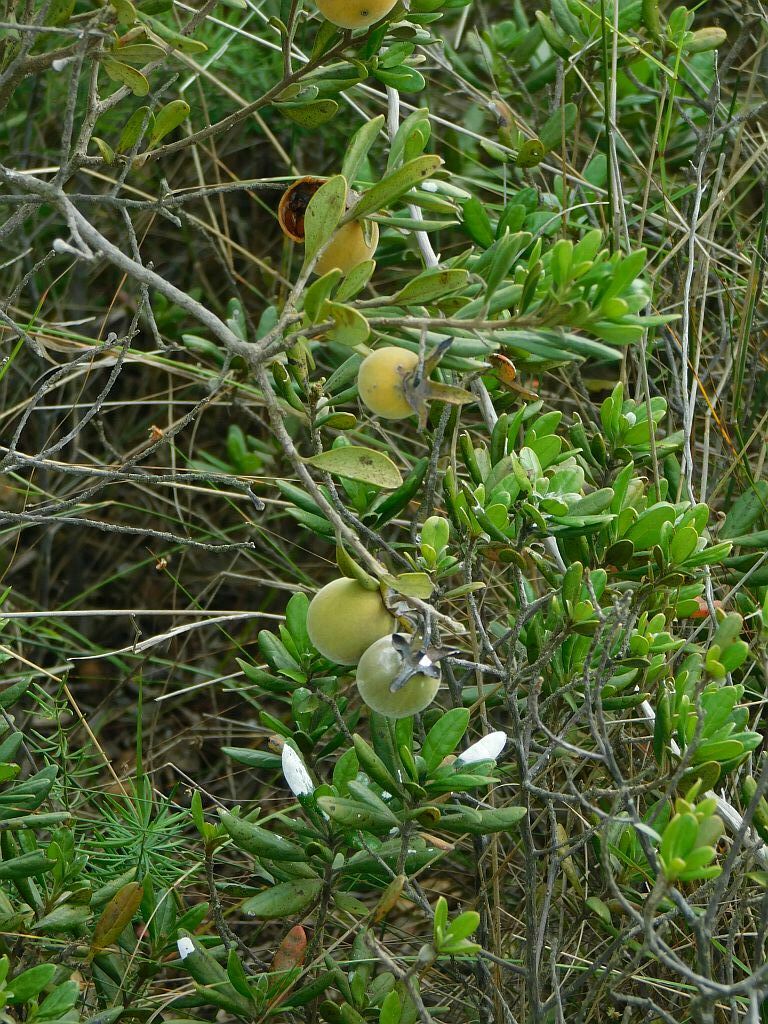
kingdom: Plantae
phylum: Tracheophyta
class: Magnoliopsida
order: Ericales
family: Ebenaceae
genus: Diospyros
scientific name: Diospyros dichrophylla
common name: Common star-apple
